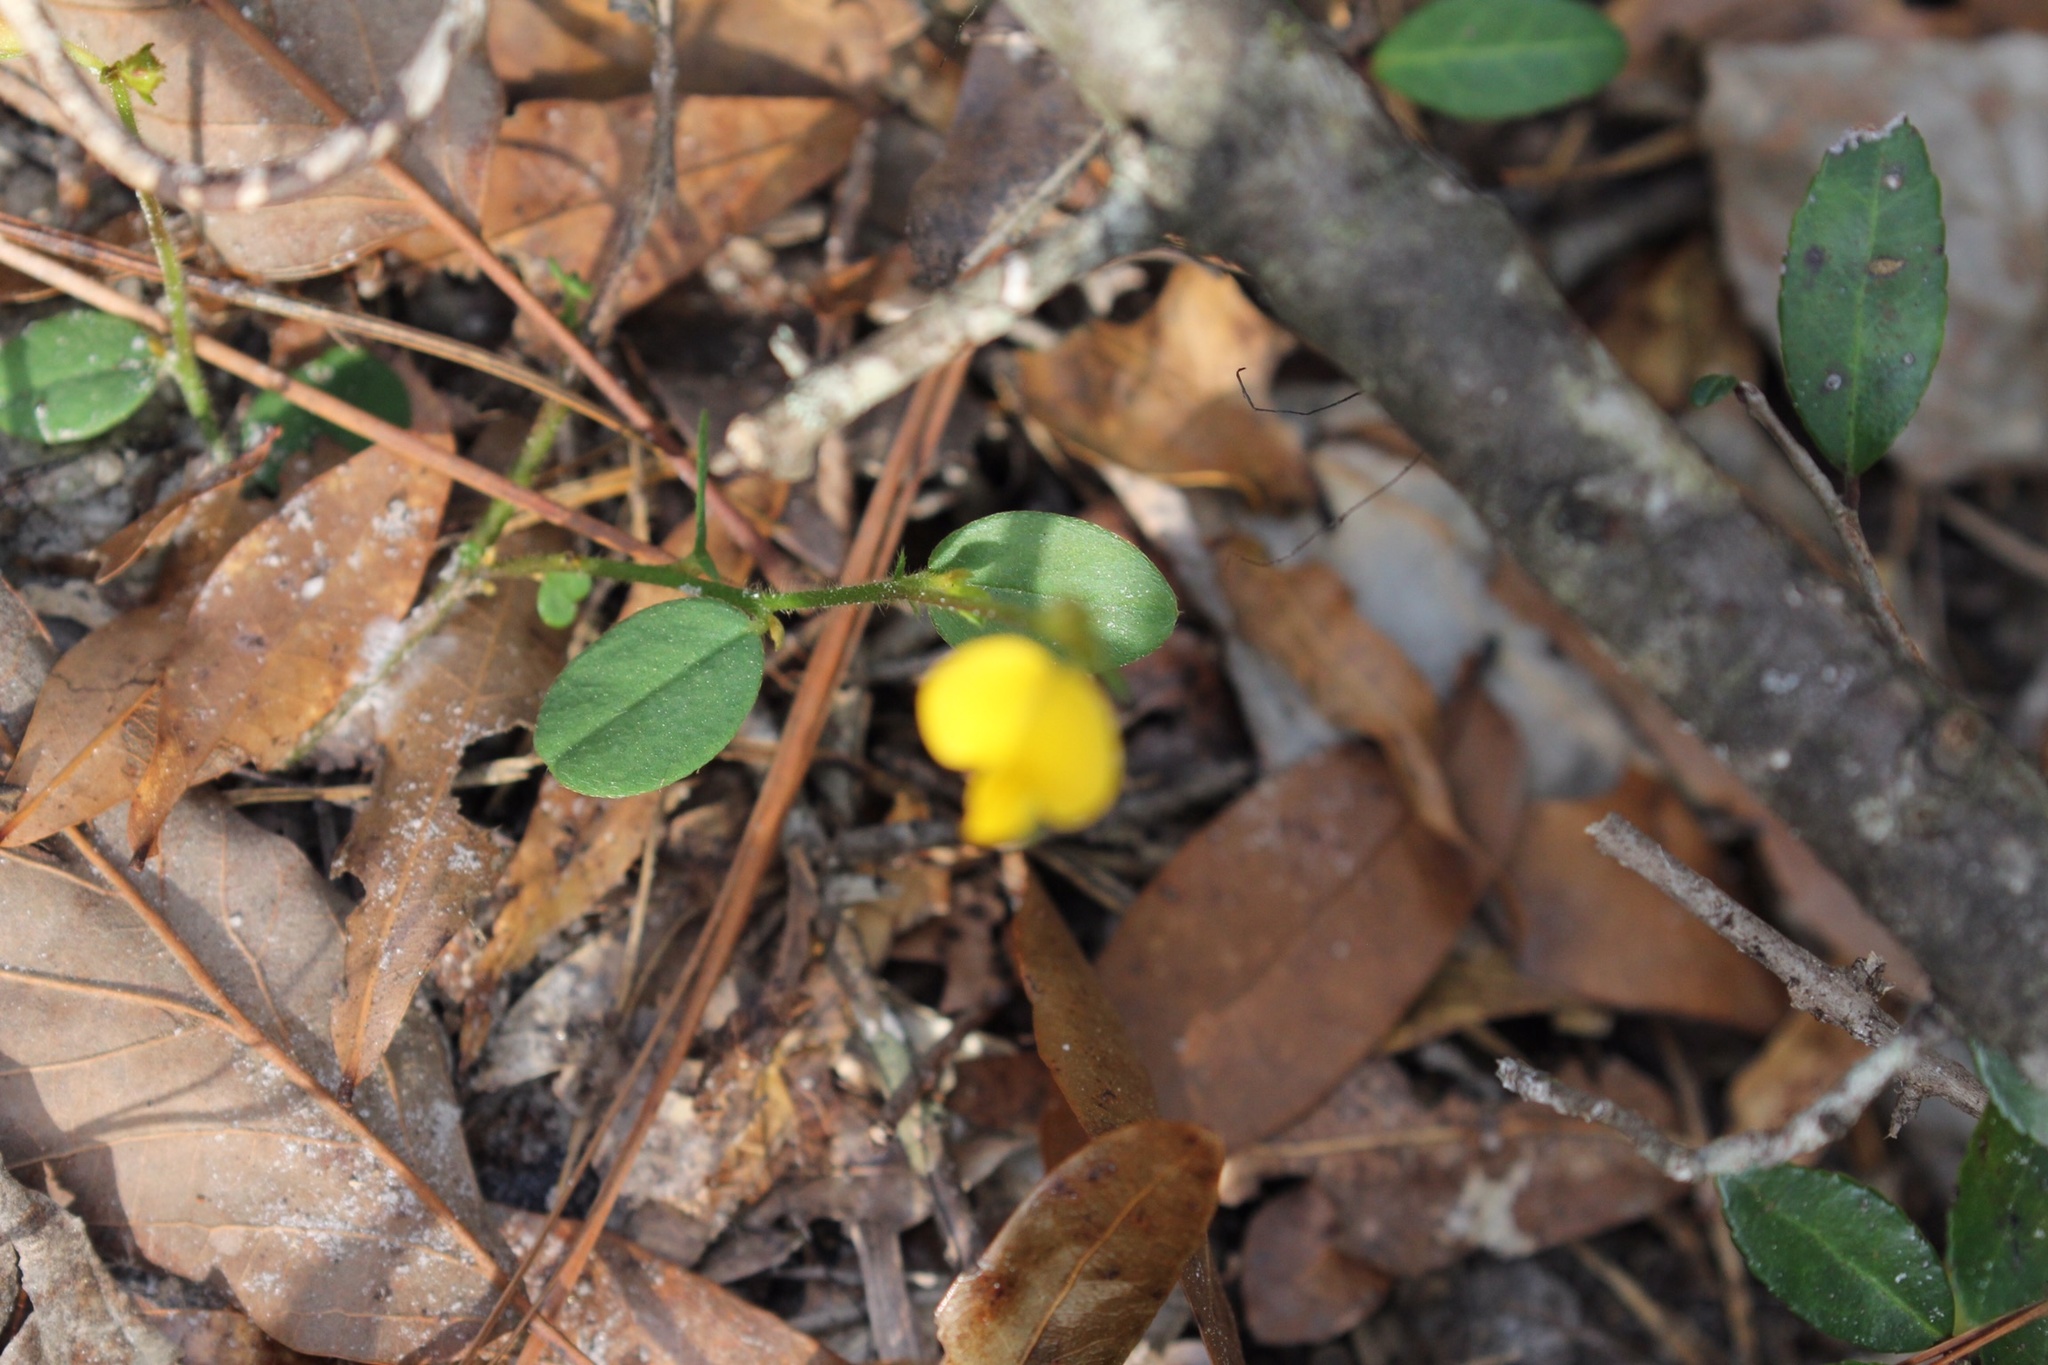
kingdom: Plantae
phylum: Tracheophyta
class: Magnoliopsida
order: Fabales
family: Fabaceae
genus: Crotalaria
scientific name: Crotalaria rotundifolia
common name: Prostrate rattlebox
